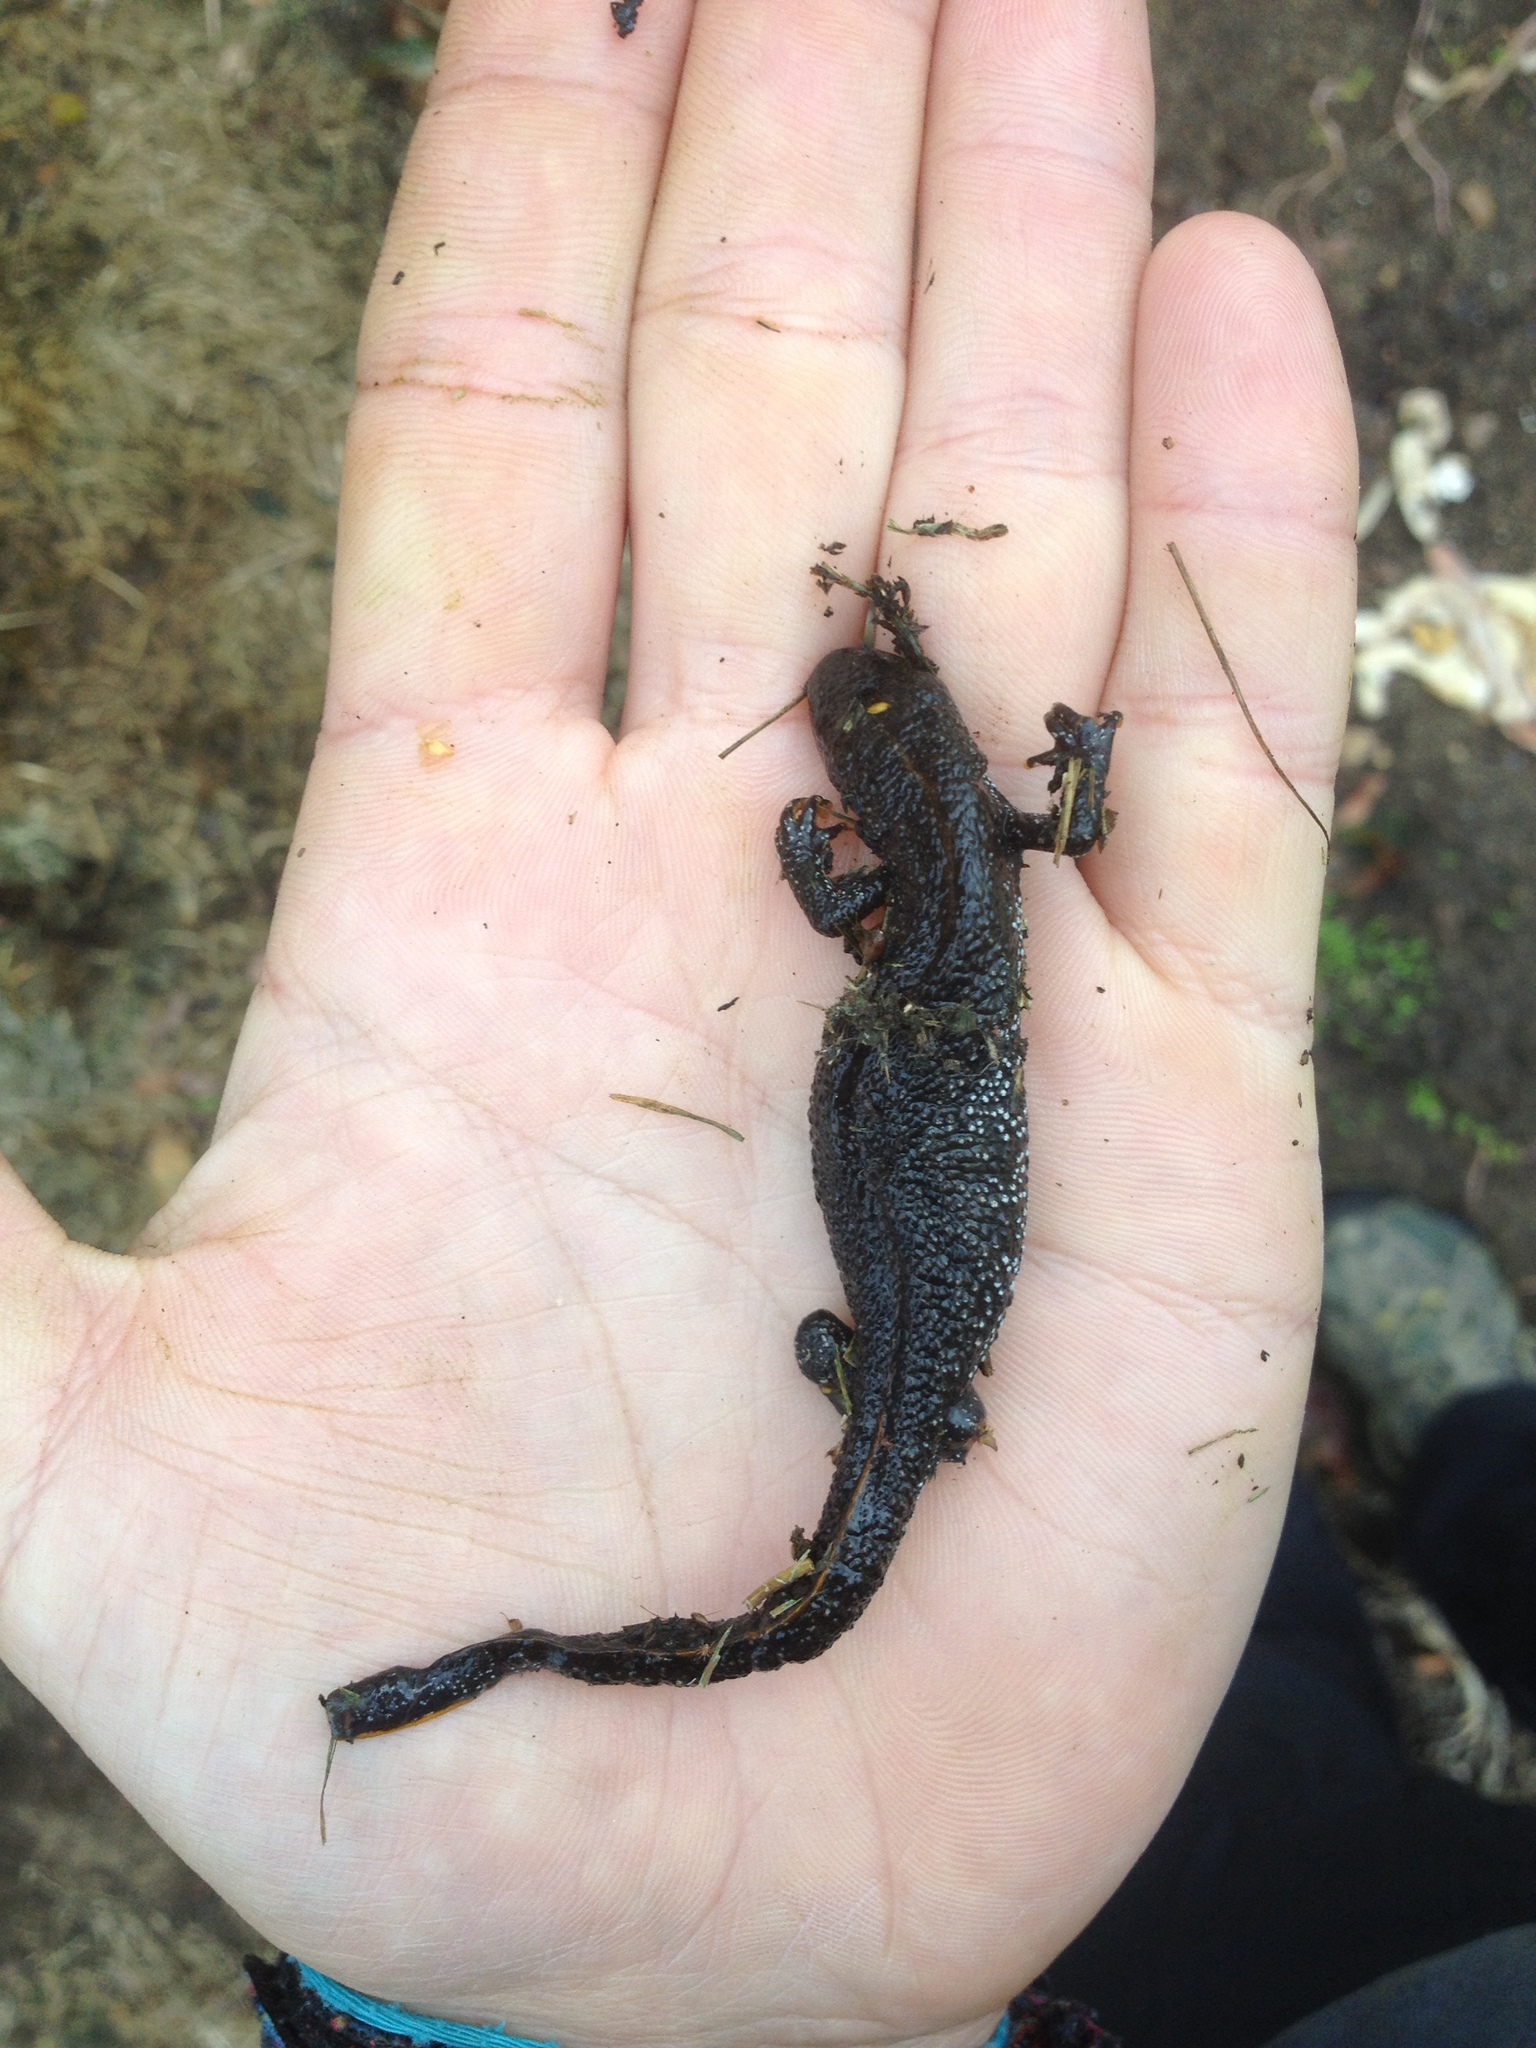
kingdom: Animalia
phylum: Chordata
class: Amphibia
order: Caudata
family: Salamandridae
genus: Triturus
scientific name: Triturus cristatus
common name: Crested newt
